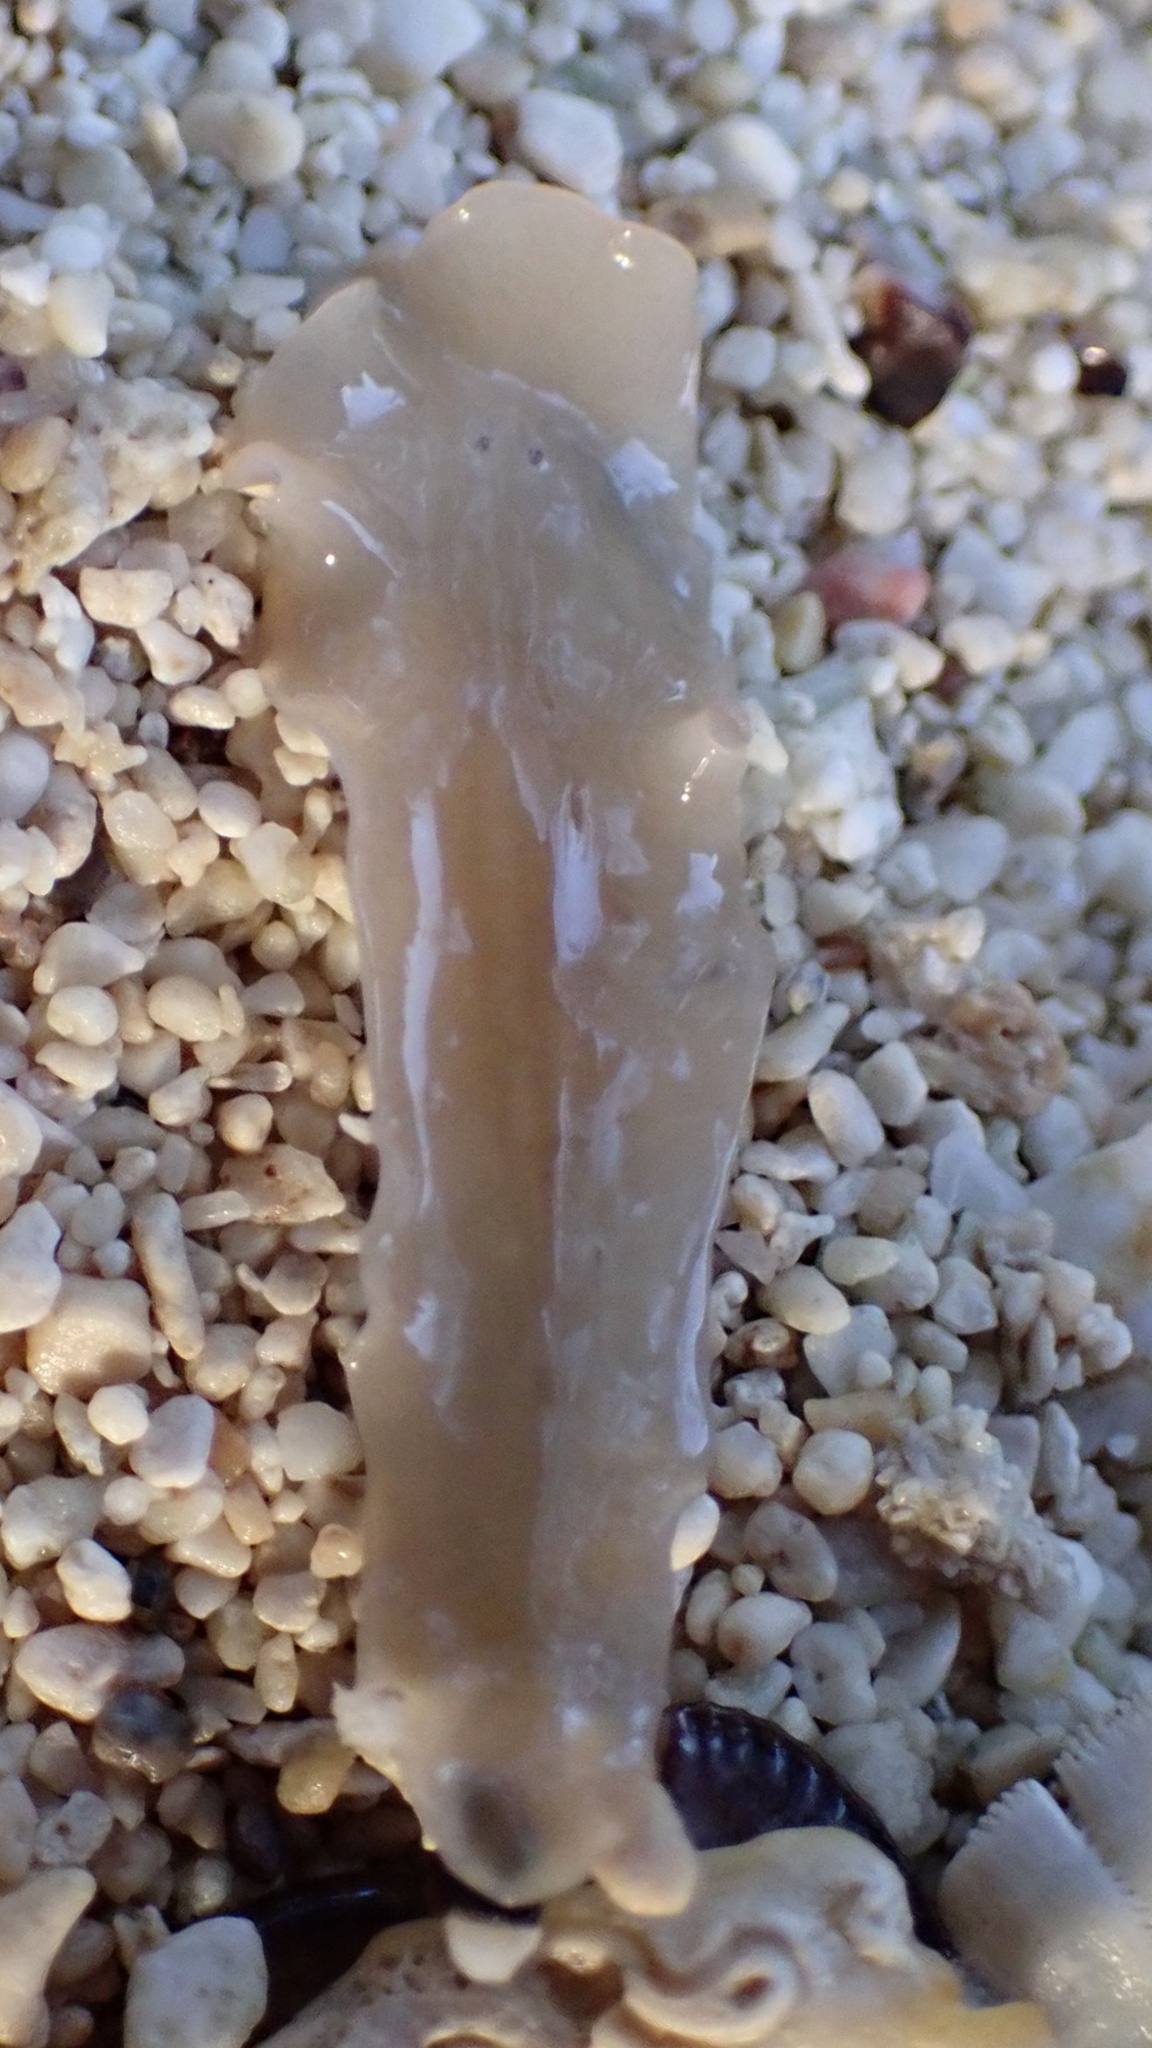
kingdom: Animalia
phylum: Platyhelminthes
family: Notocomplanidae
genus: Notocomplana
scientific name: Notocomplana ferruginea
